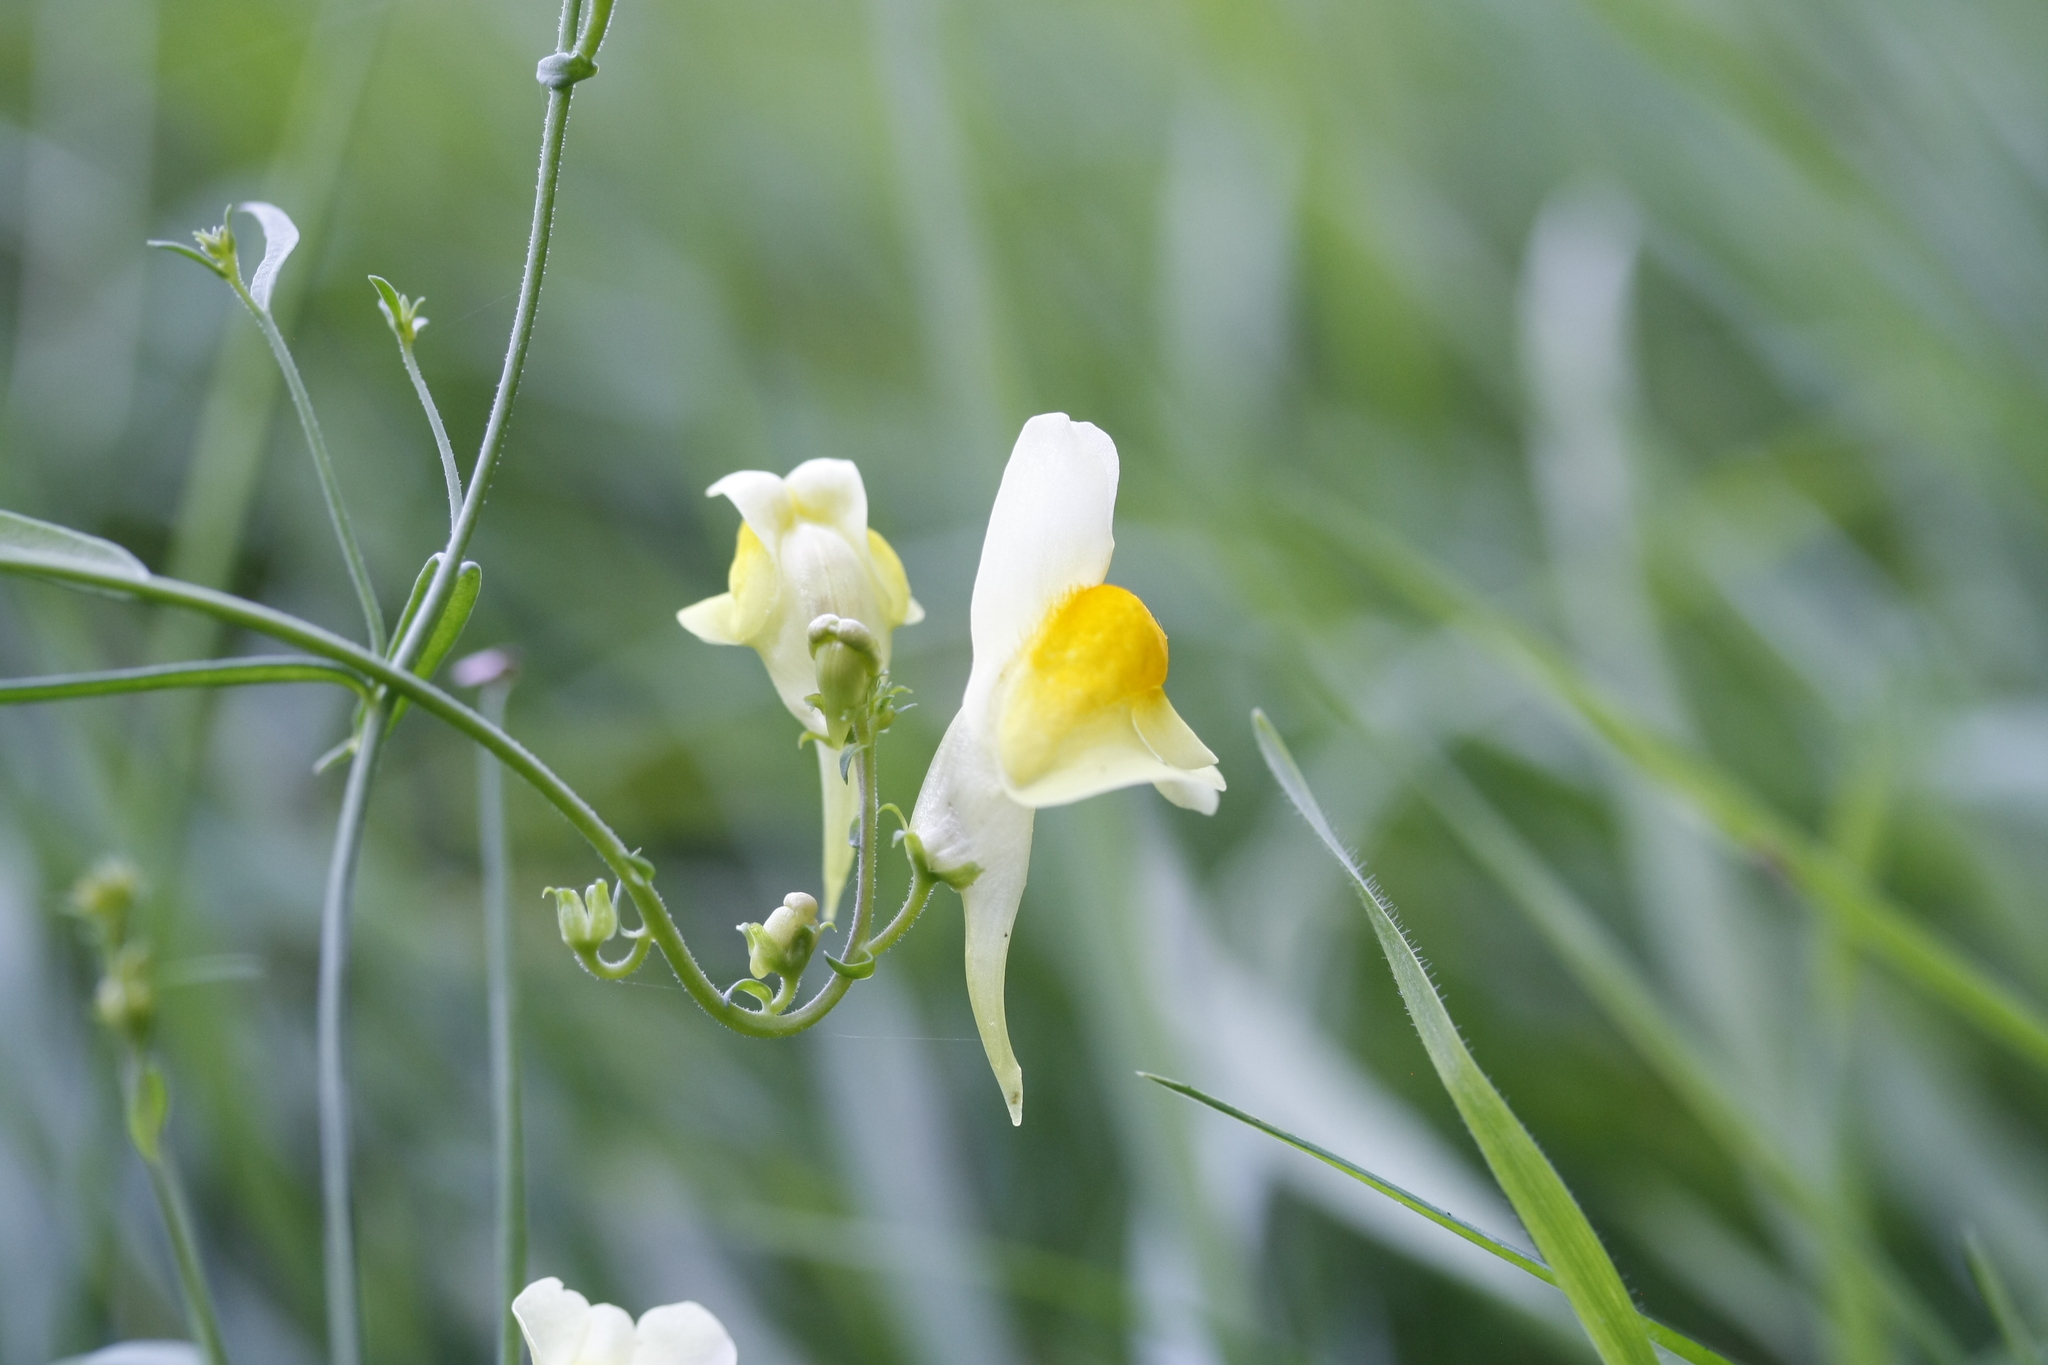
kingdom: Plantae
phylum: Tracheophyta
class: Magnoliopsida
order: Lamiales
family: Plantaginaceae
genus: Linaria
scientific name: Linaria vulgaris
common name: Butter and eggs
